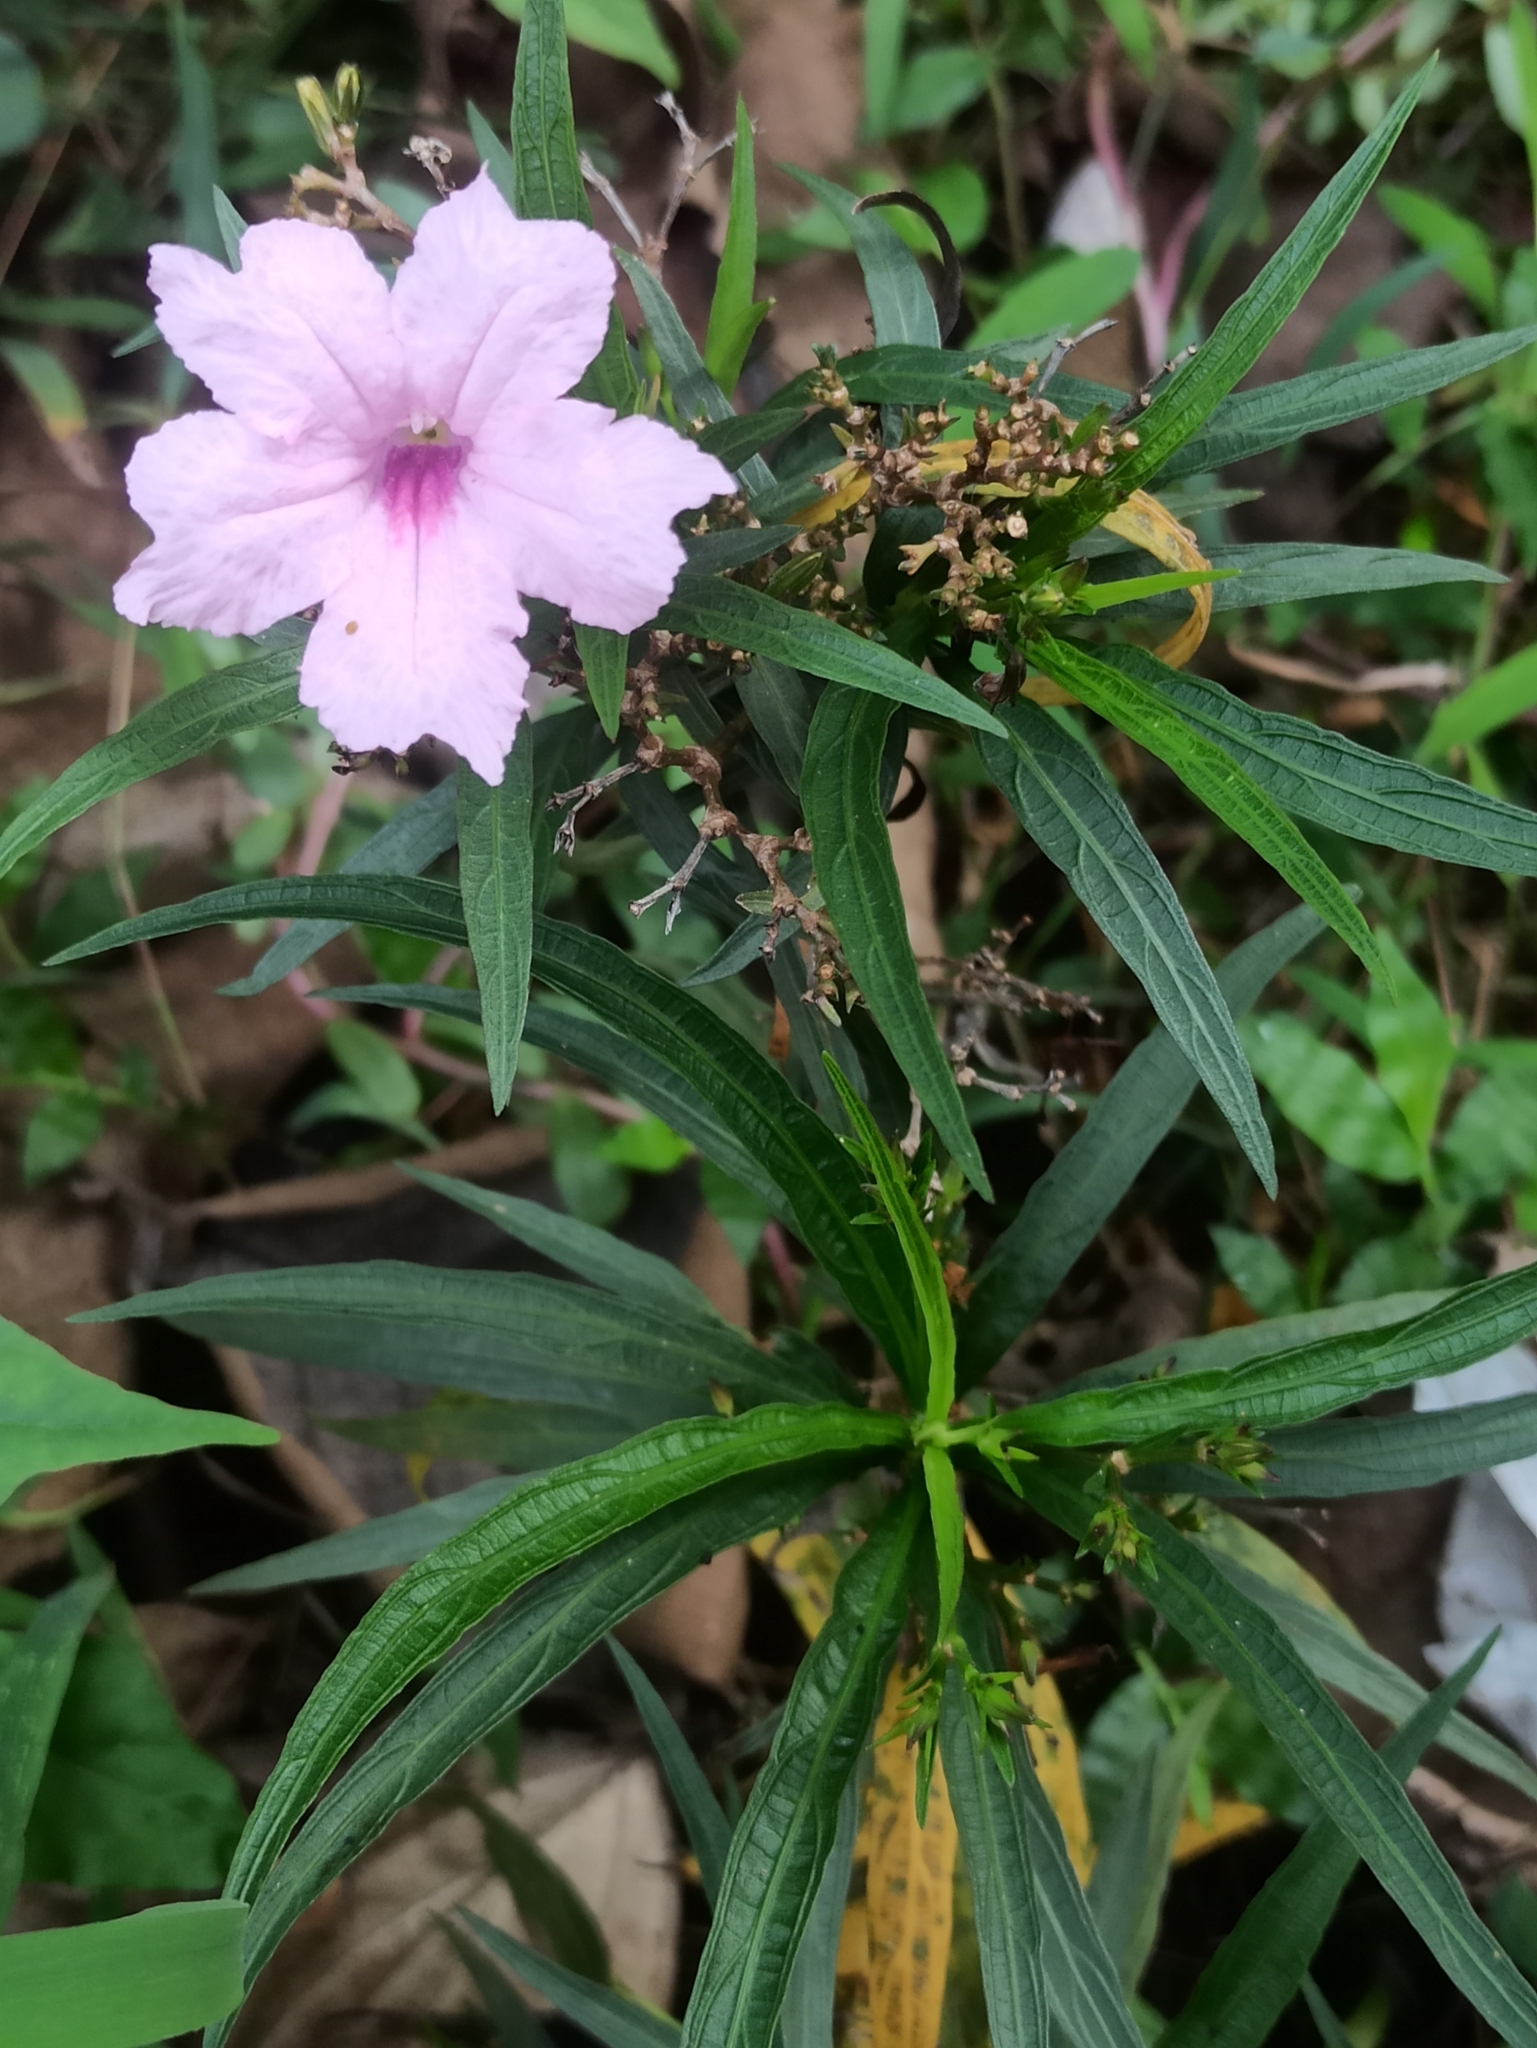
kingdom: Plantae
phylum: Tracheophyta
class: Magnoliopsida
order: Lamiales
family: Acanthaceae
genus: Ruellia
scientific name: Ruellia simplex
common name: Softseed wild petunia
